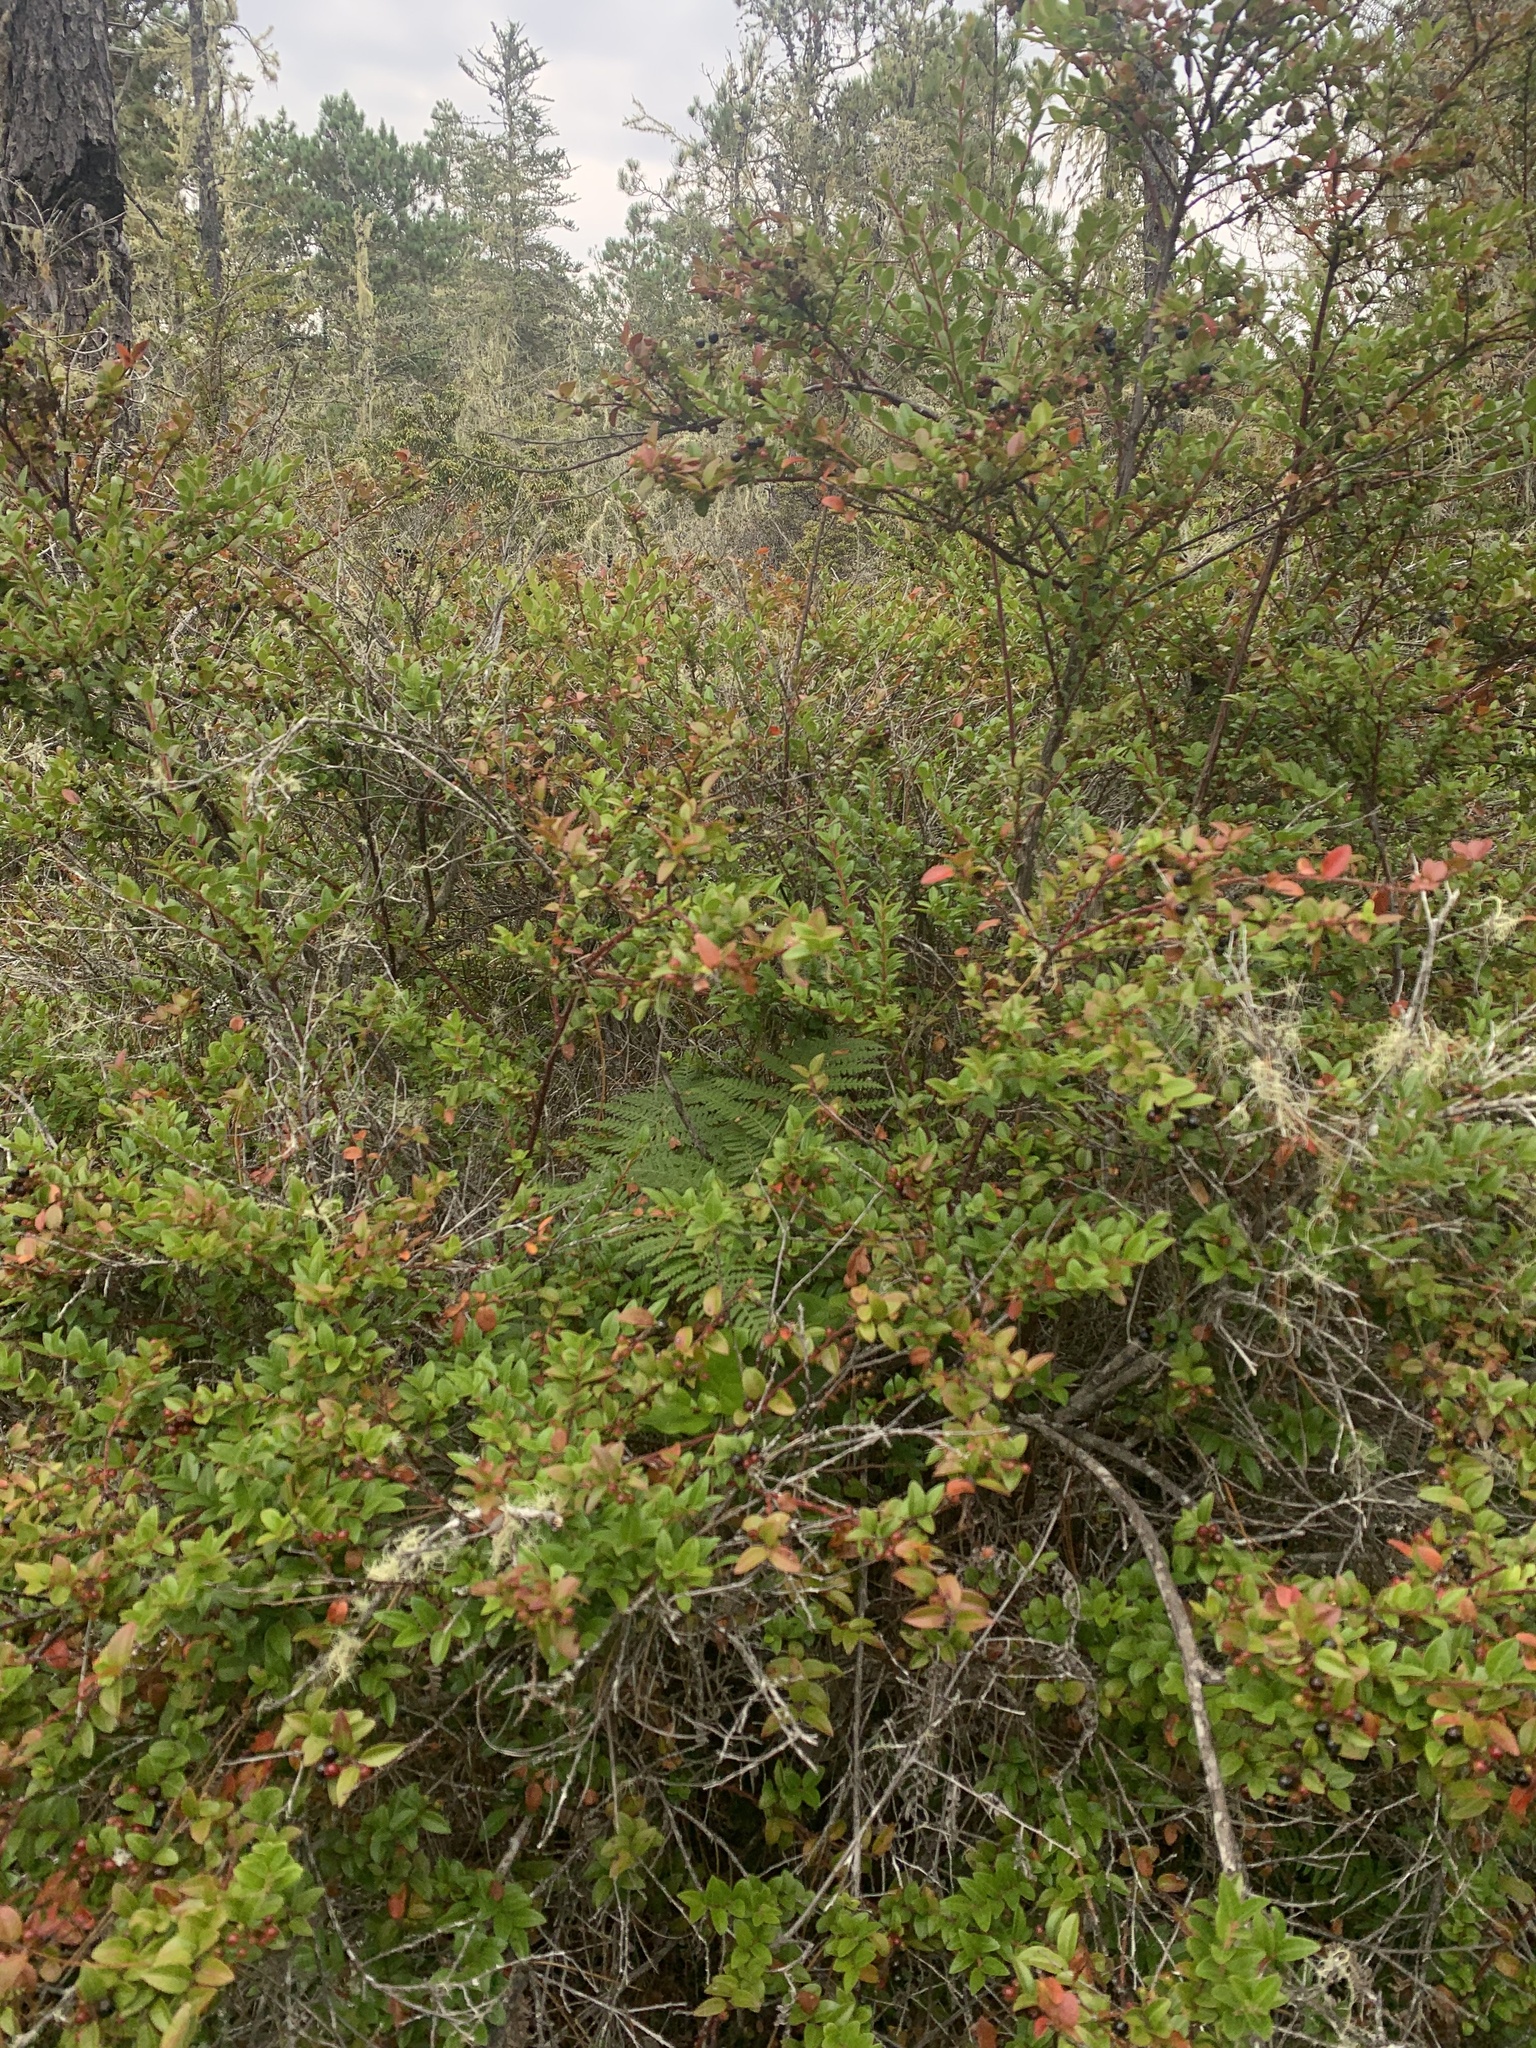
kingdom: Plantae
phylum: Tracheophyta
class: Magnoliopsida
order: Ericales
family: Ericaceae
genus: Vaccinium
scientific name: Vaccinium ovatum
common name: California-huckleberry
